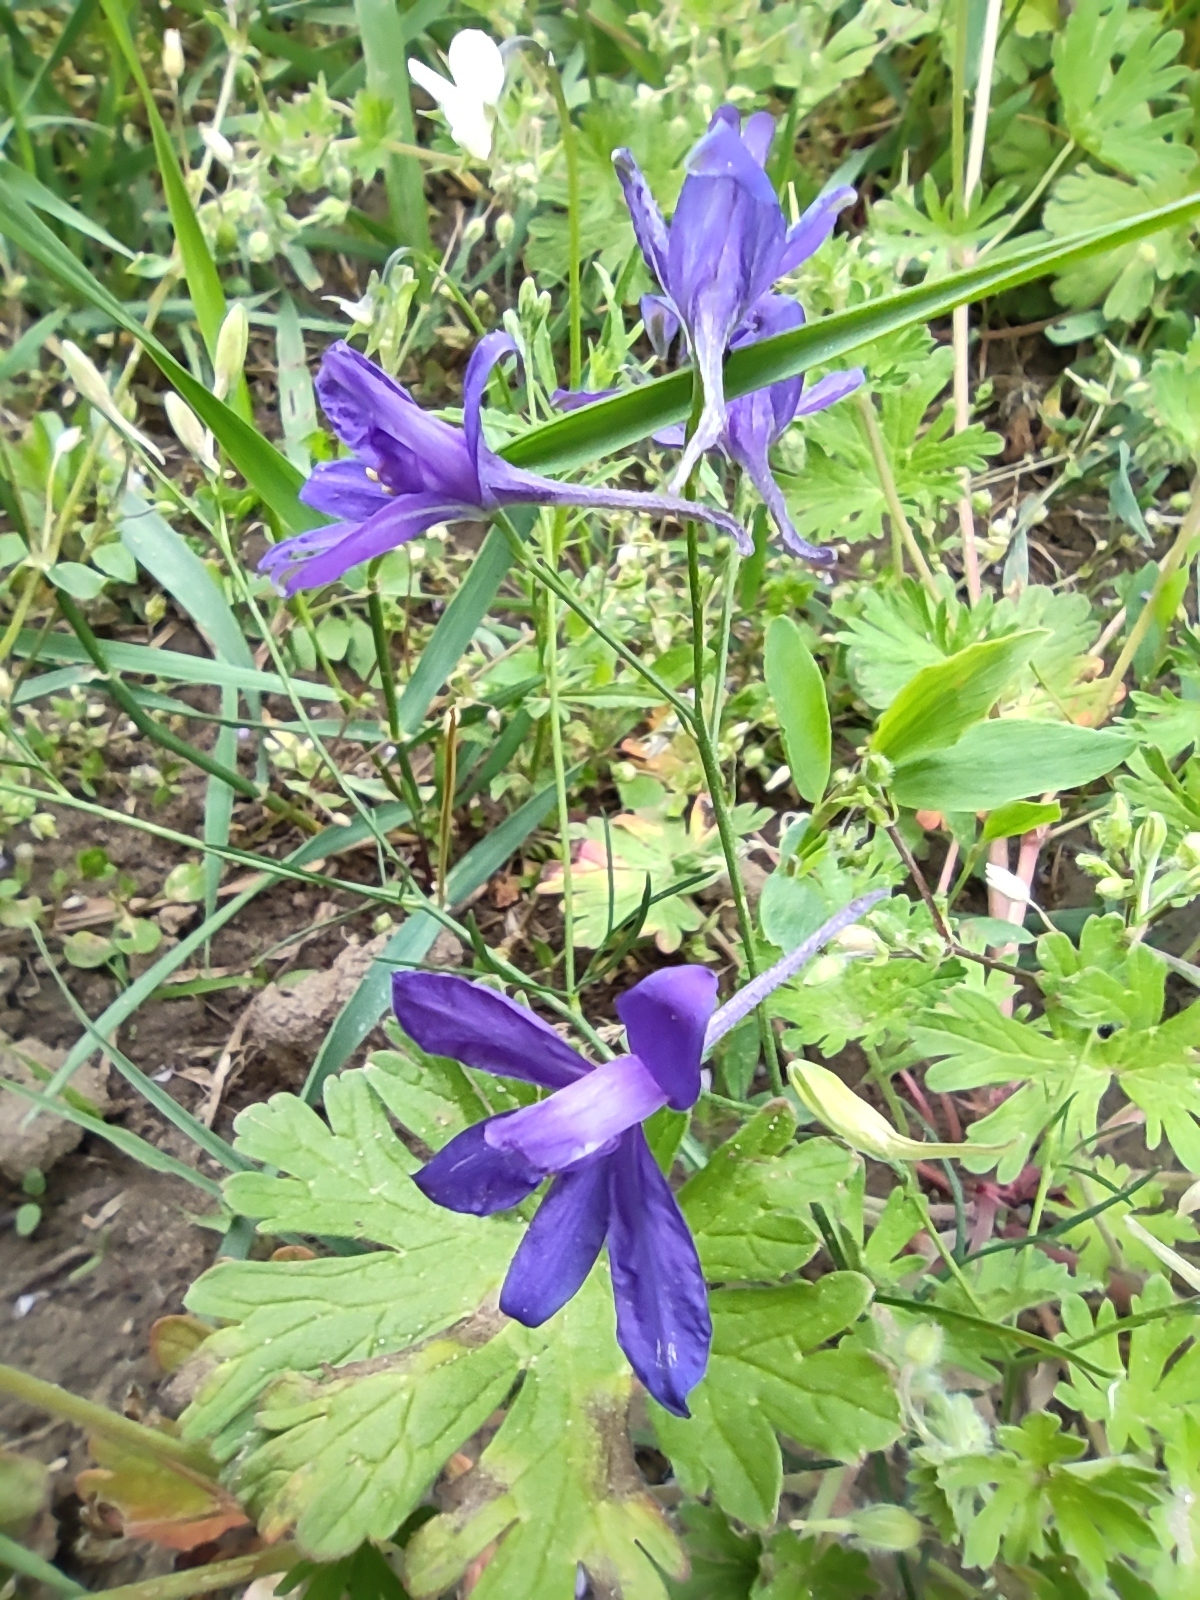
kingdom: Plantae
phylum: Tracheophyta
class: Magnoliopsida
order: Ranunculales
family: Ranunculaceae
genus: Delphinium
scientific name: Delphinium consolida
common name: Branching larkspur
